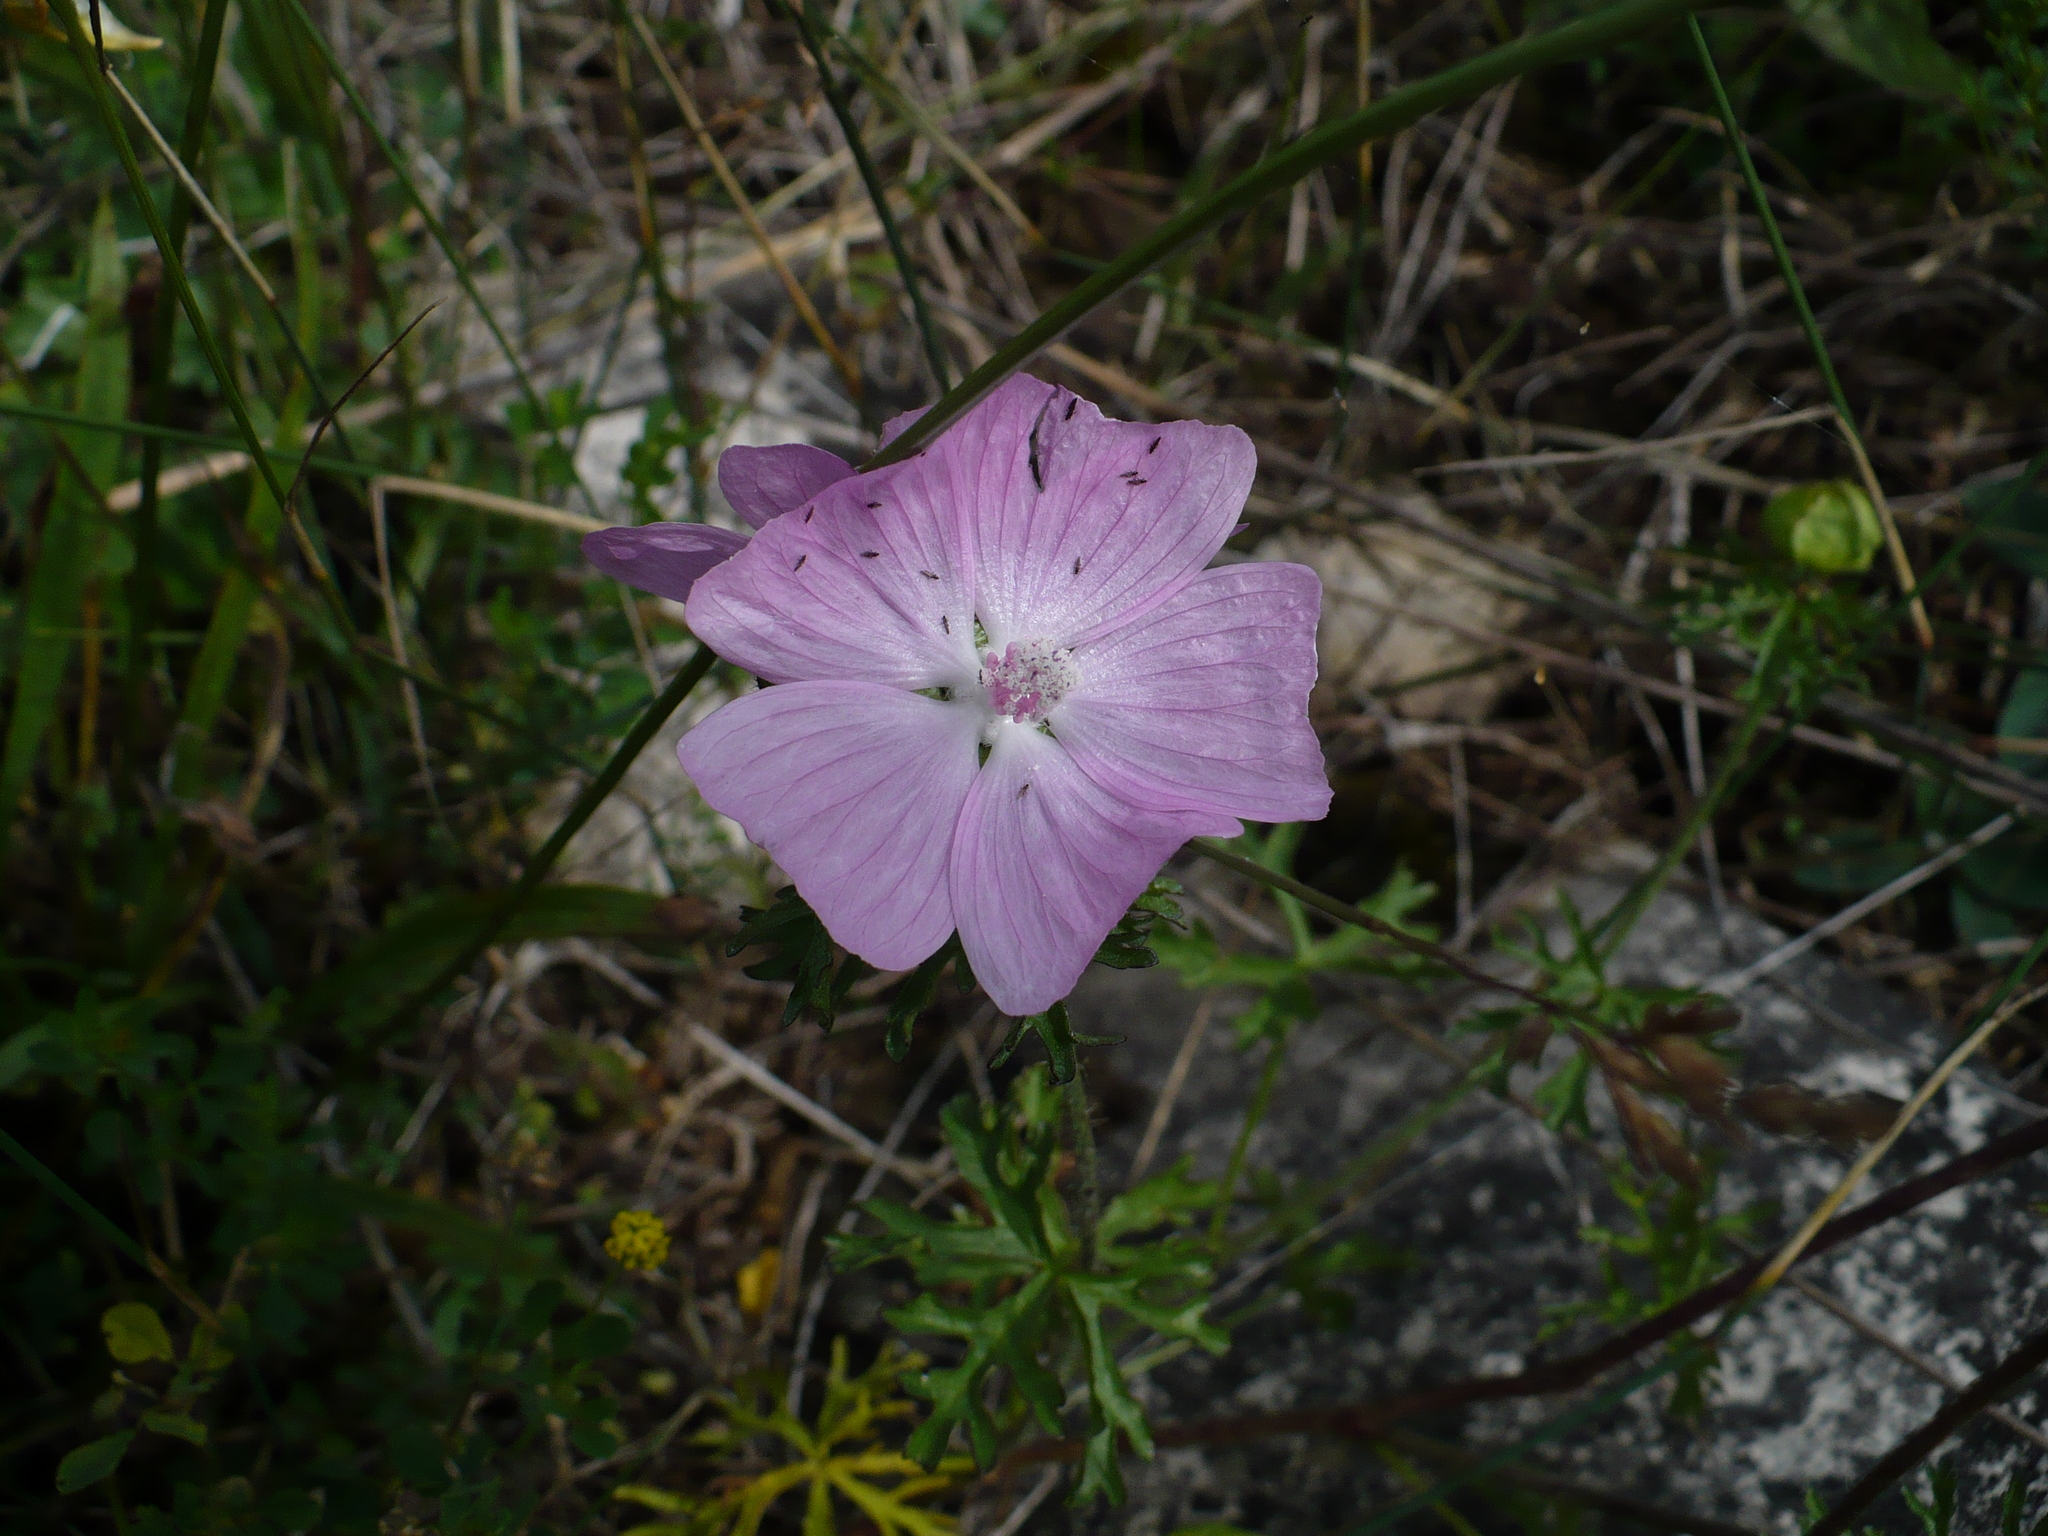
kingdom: Plantae
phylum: Tracheophyta
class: Magnoliopsida
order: Malvales
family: Malvaceae
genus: Malva
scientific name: Malva moschata
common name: Musk mallow
